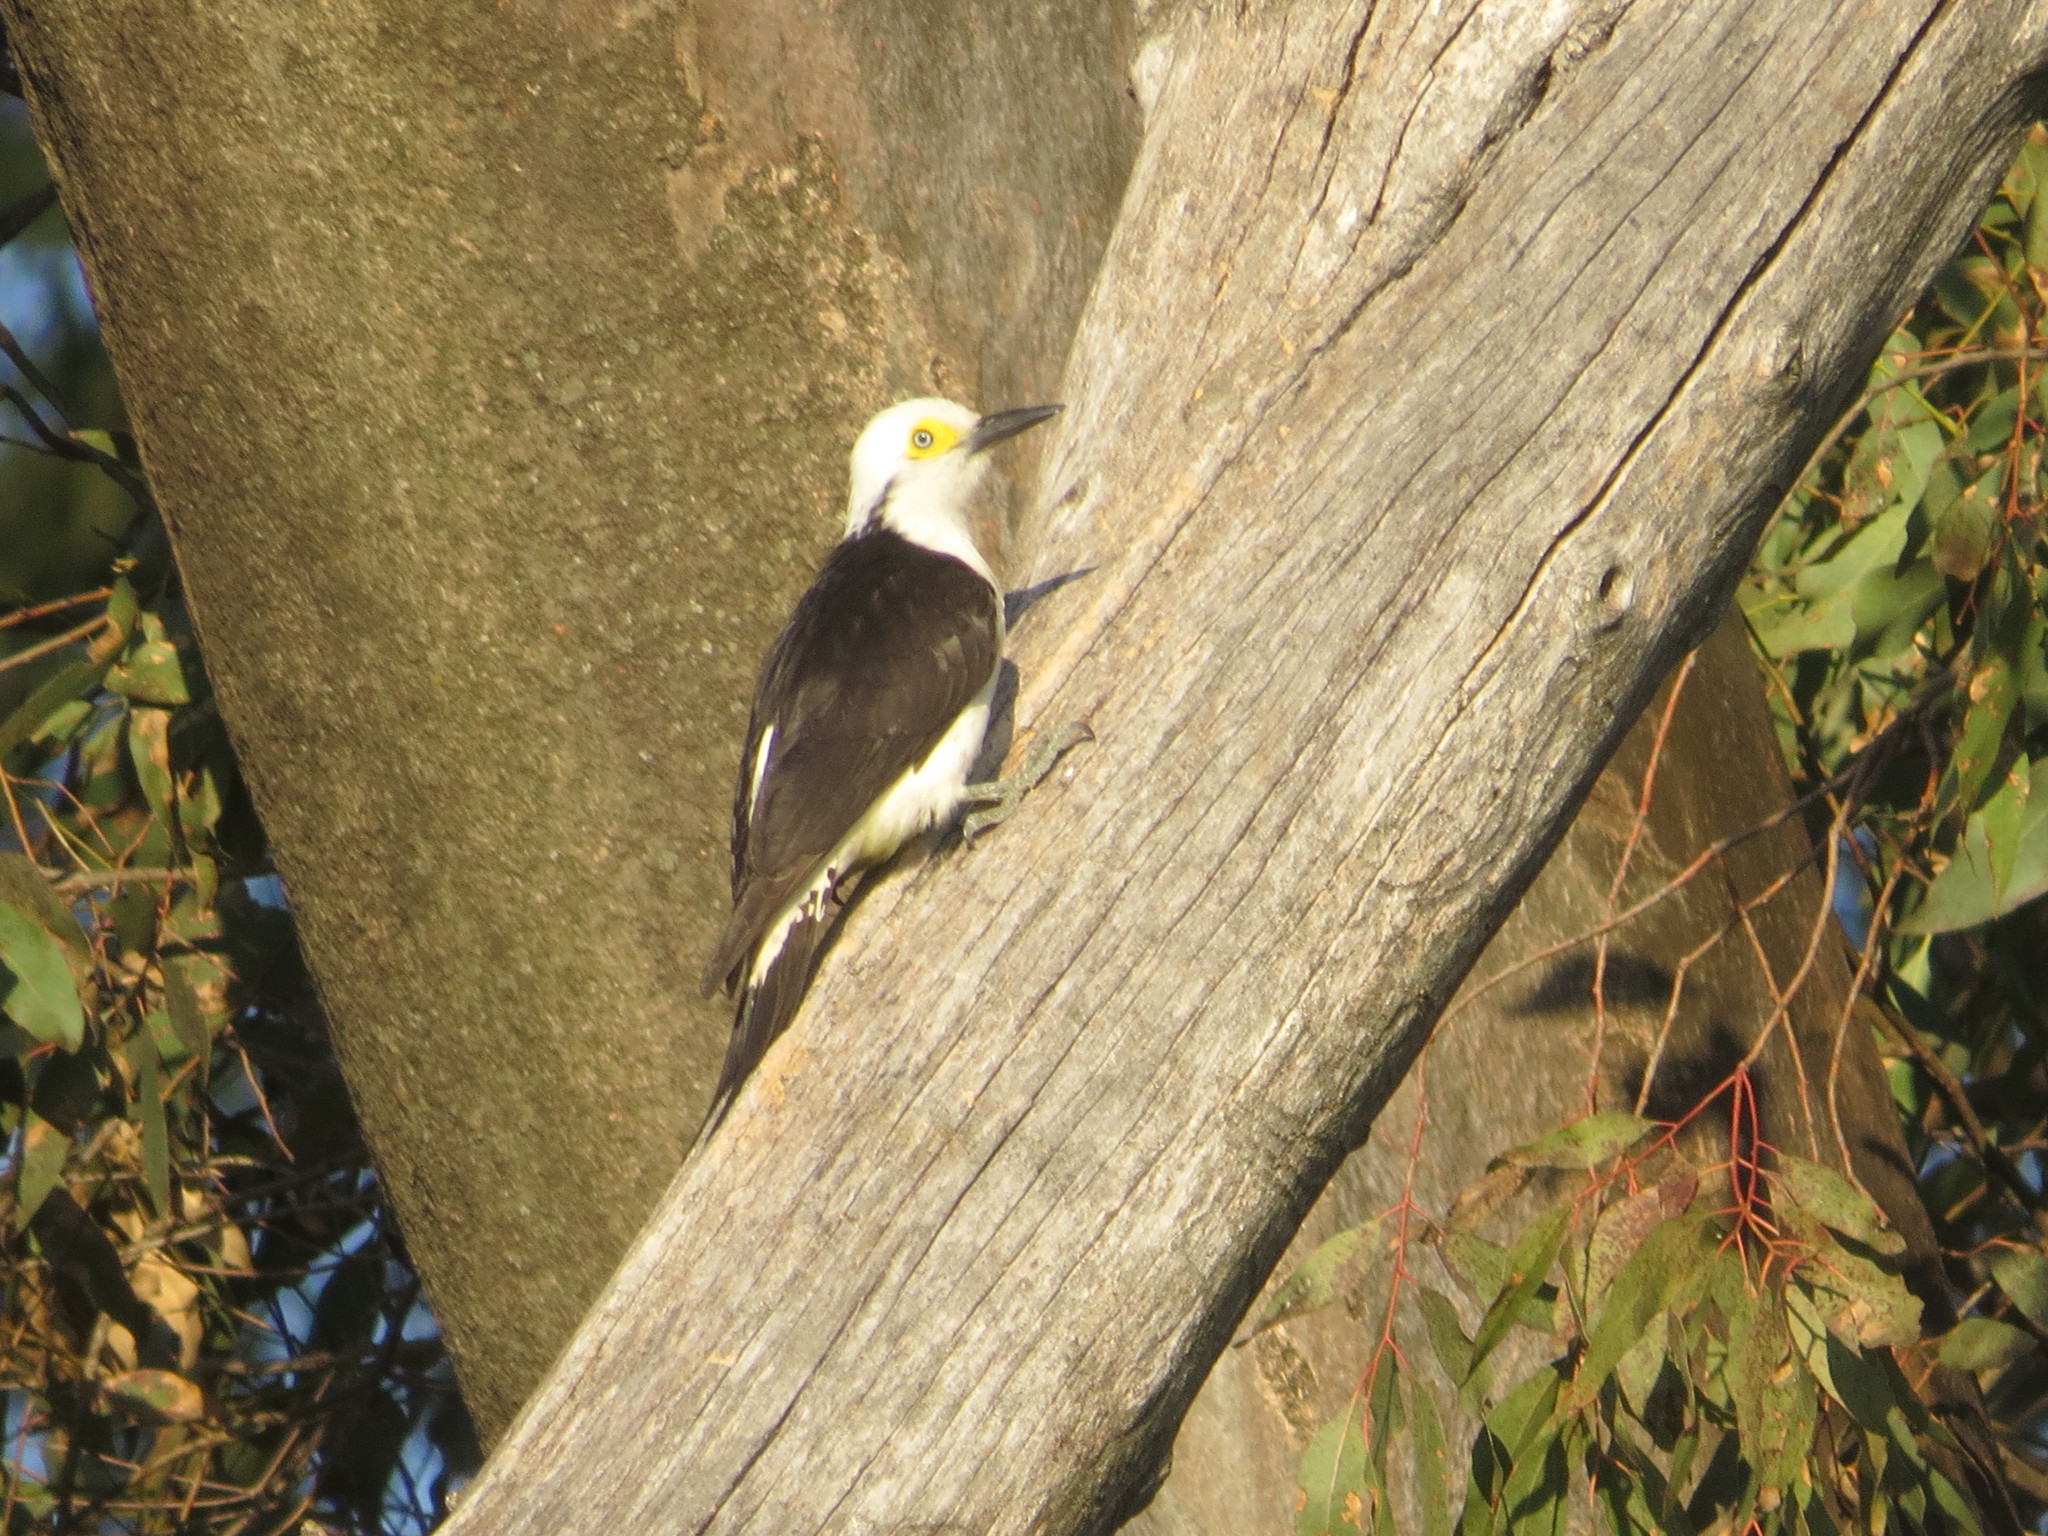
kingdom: Animalia
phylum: Chordata
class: Aves
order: Piciformes
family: Picidae
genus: Melanerpes
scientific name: Melanerpes candidus
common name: White woodpecker
